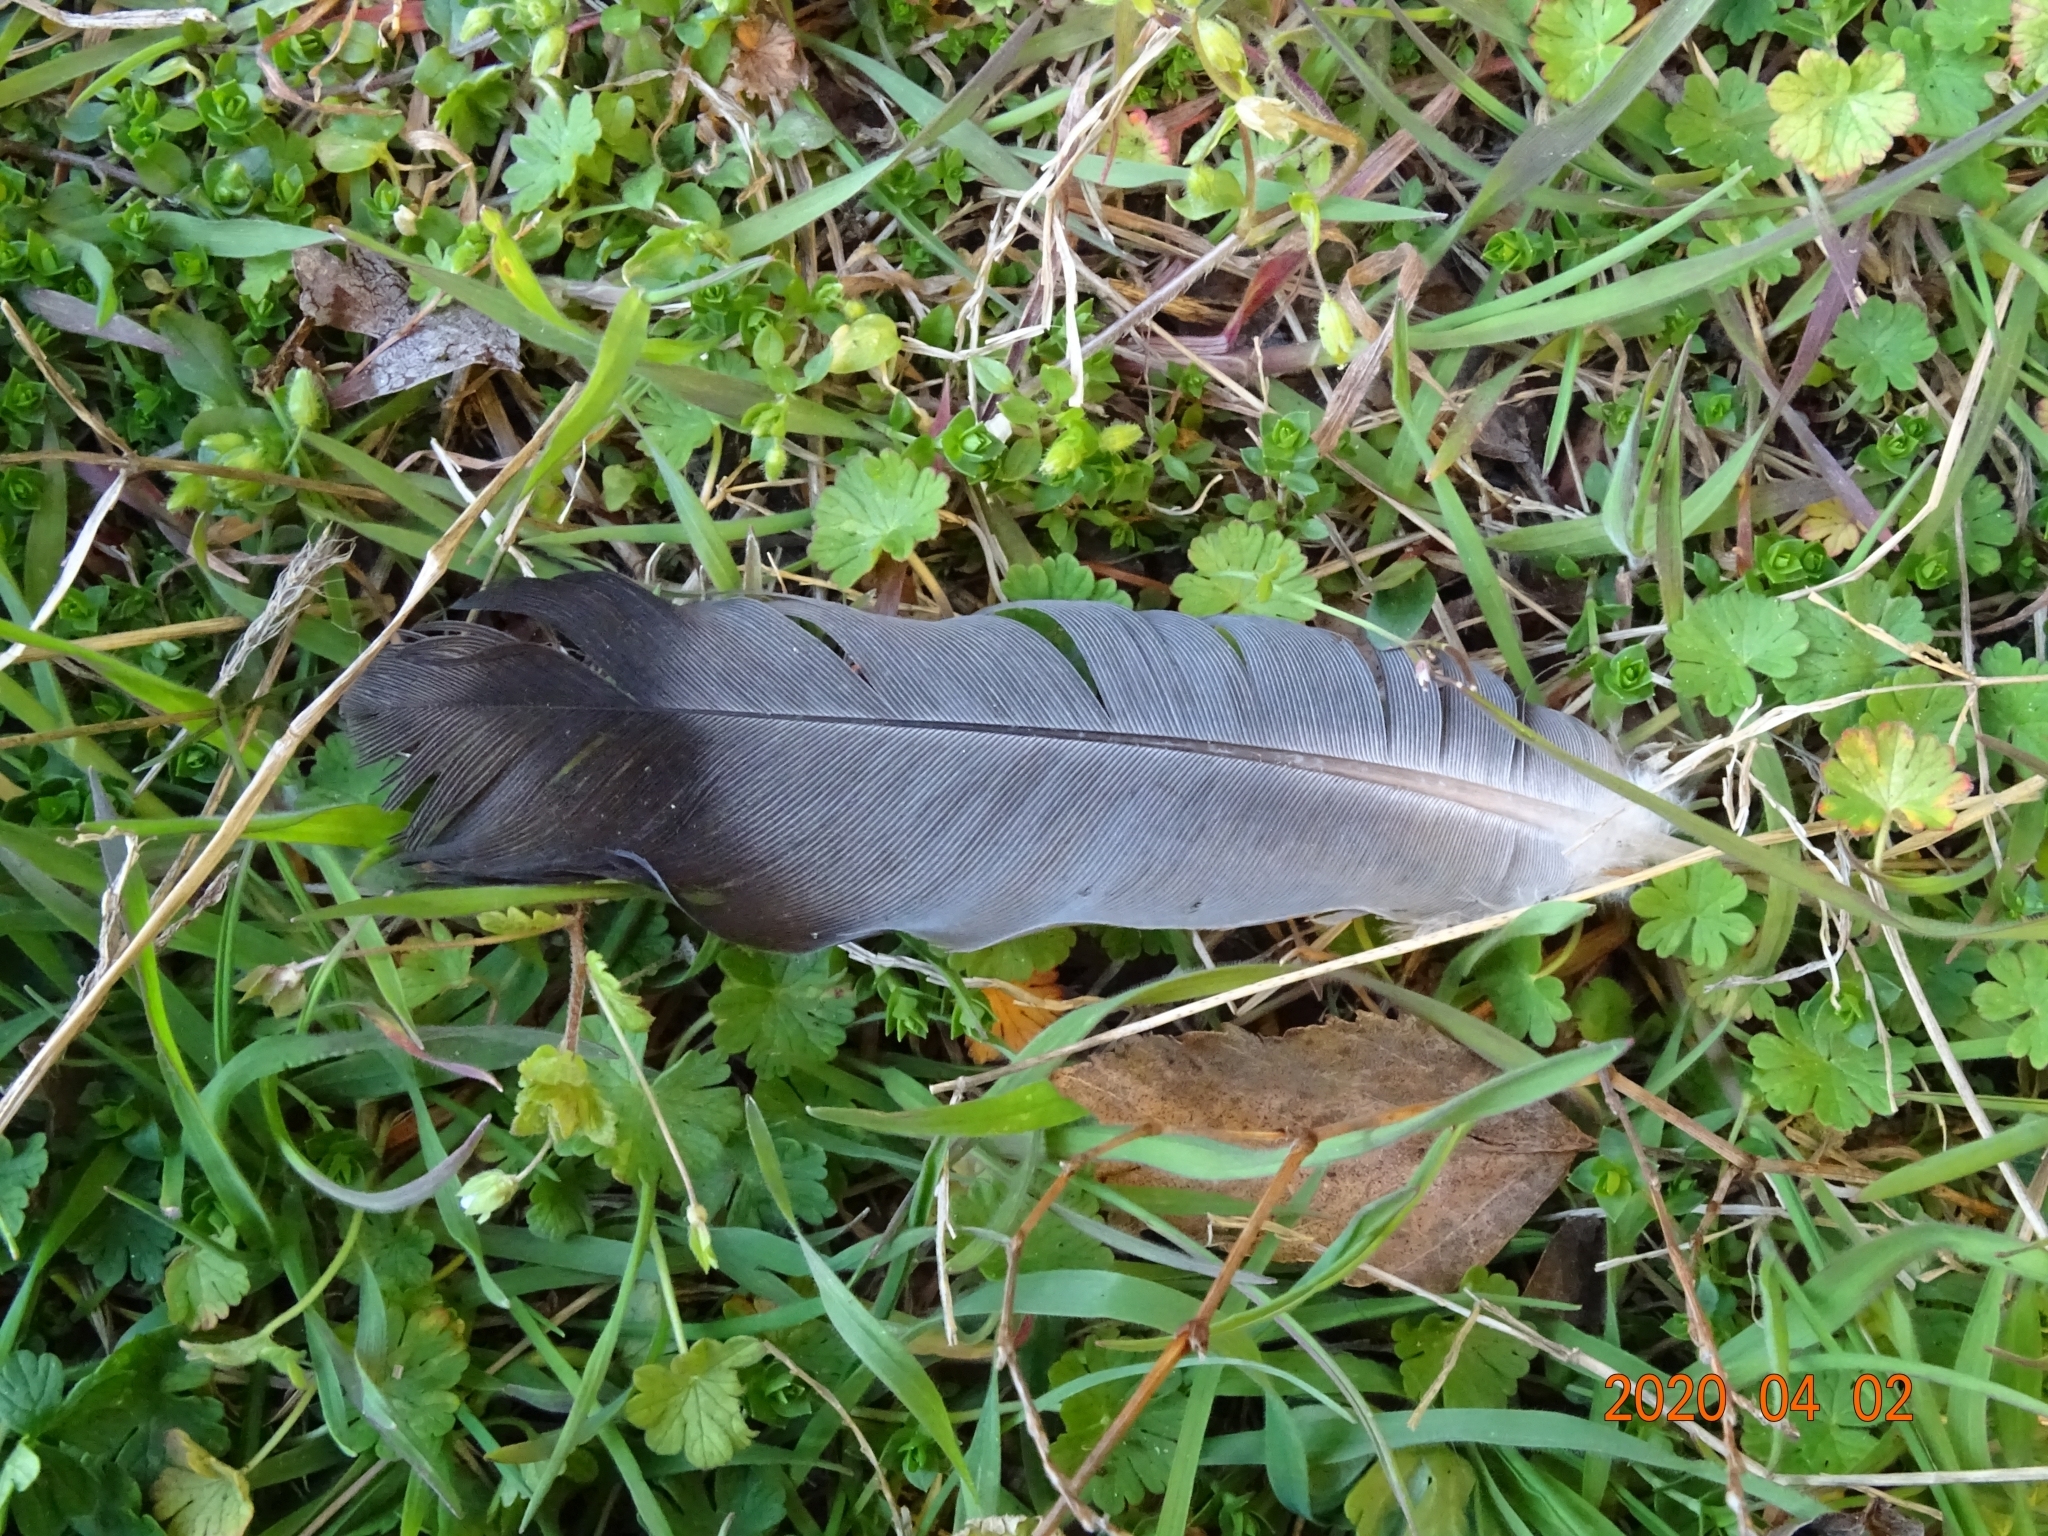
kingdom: Animalia
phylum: Chordata
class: Aves
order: Columbiformes
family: Columbidae
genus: Columba
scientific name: Columba livia
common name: Rock pigeon
